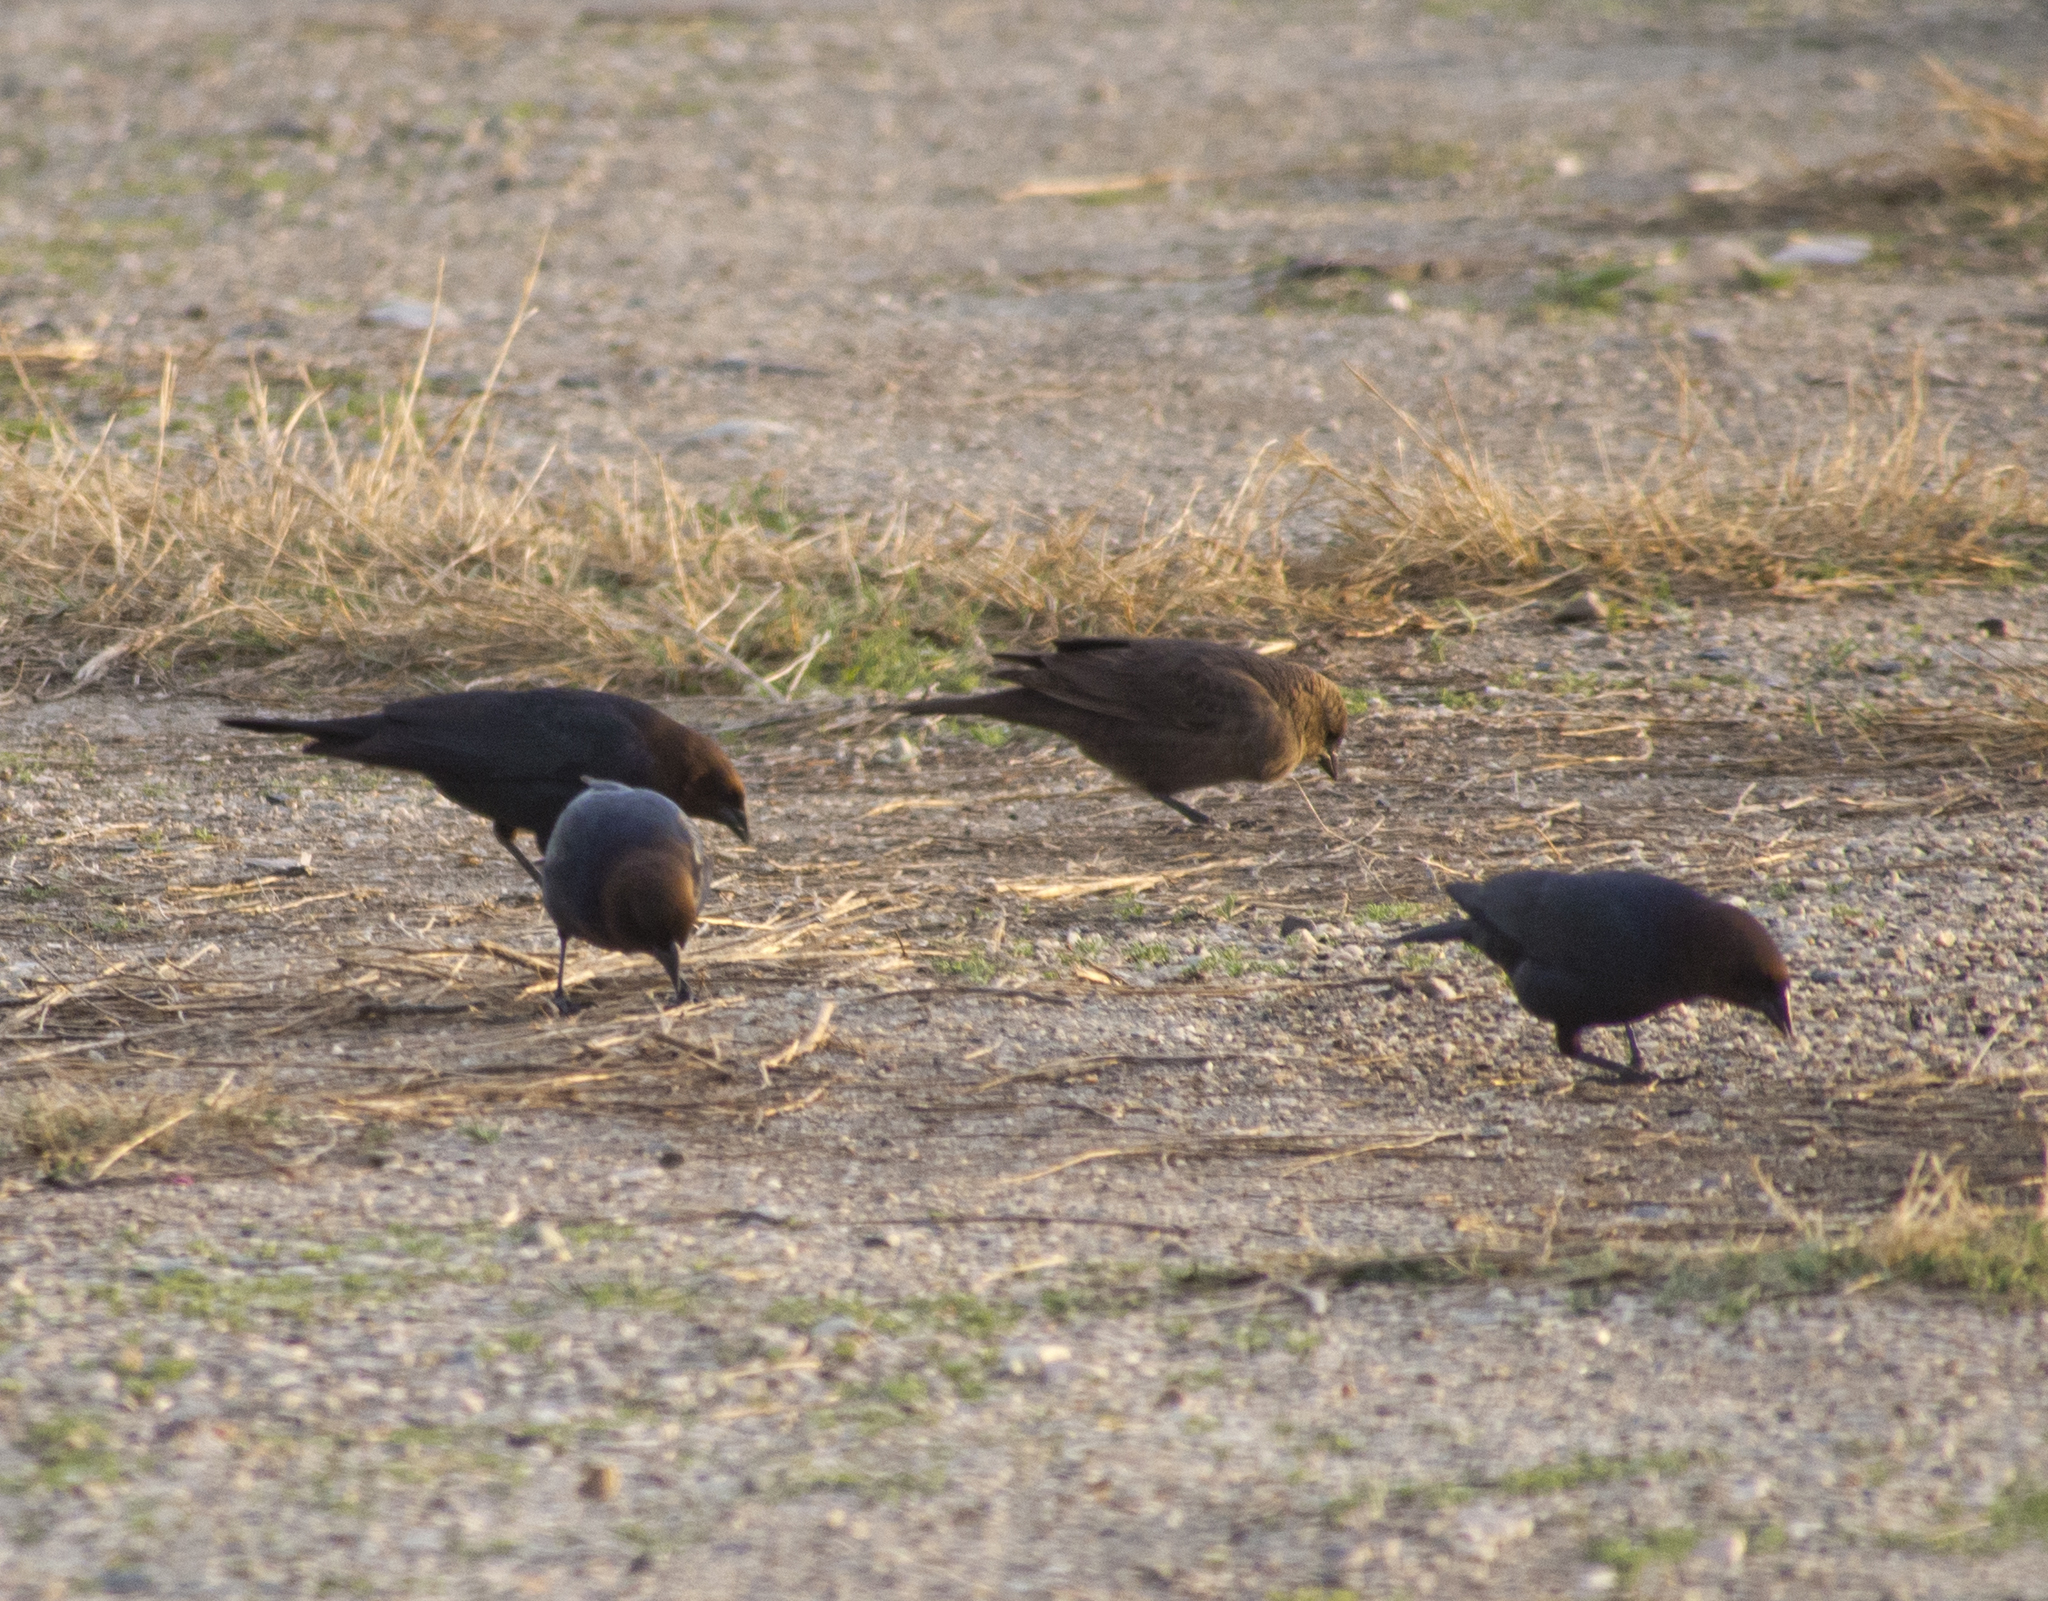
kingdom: Animalia
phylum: Chordata
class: Aves
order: Passeriformes
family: Icteridae
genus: Molothrus
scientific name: Molothrus ater
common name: Brown-headed cowbird
